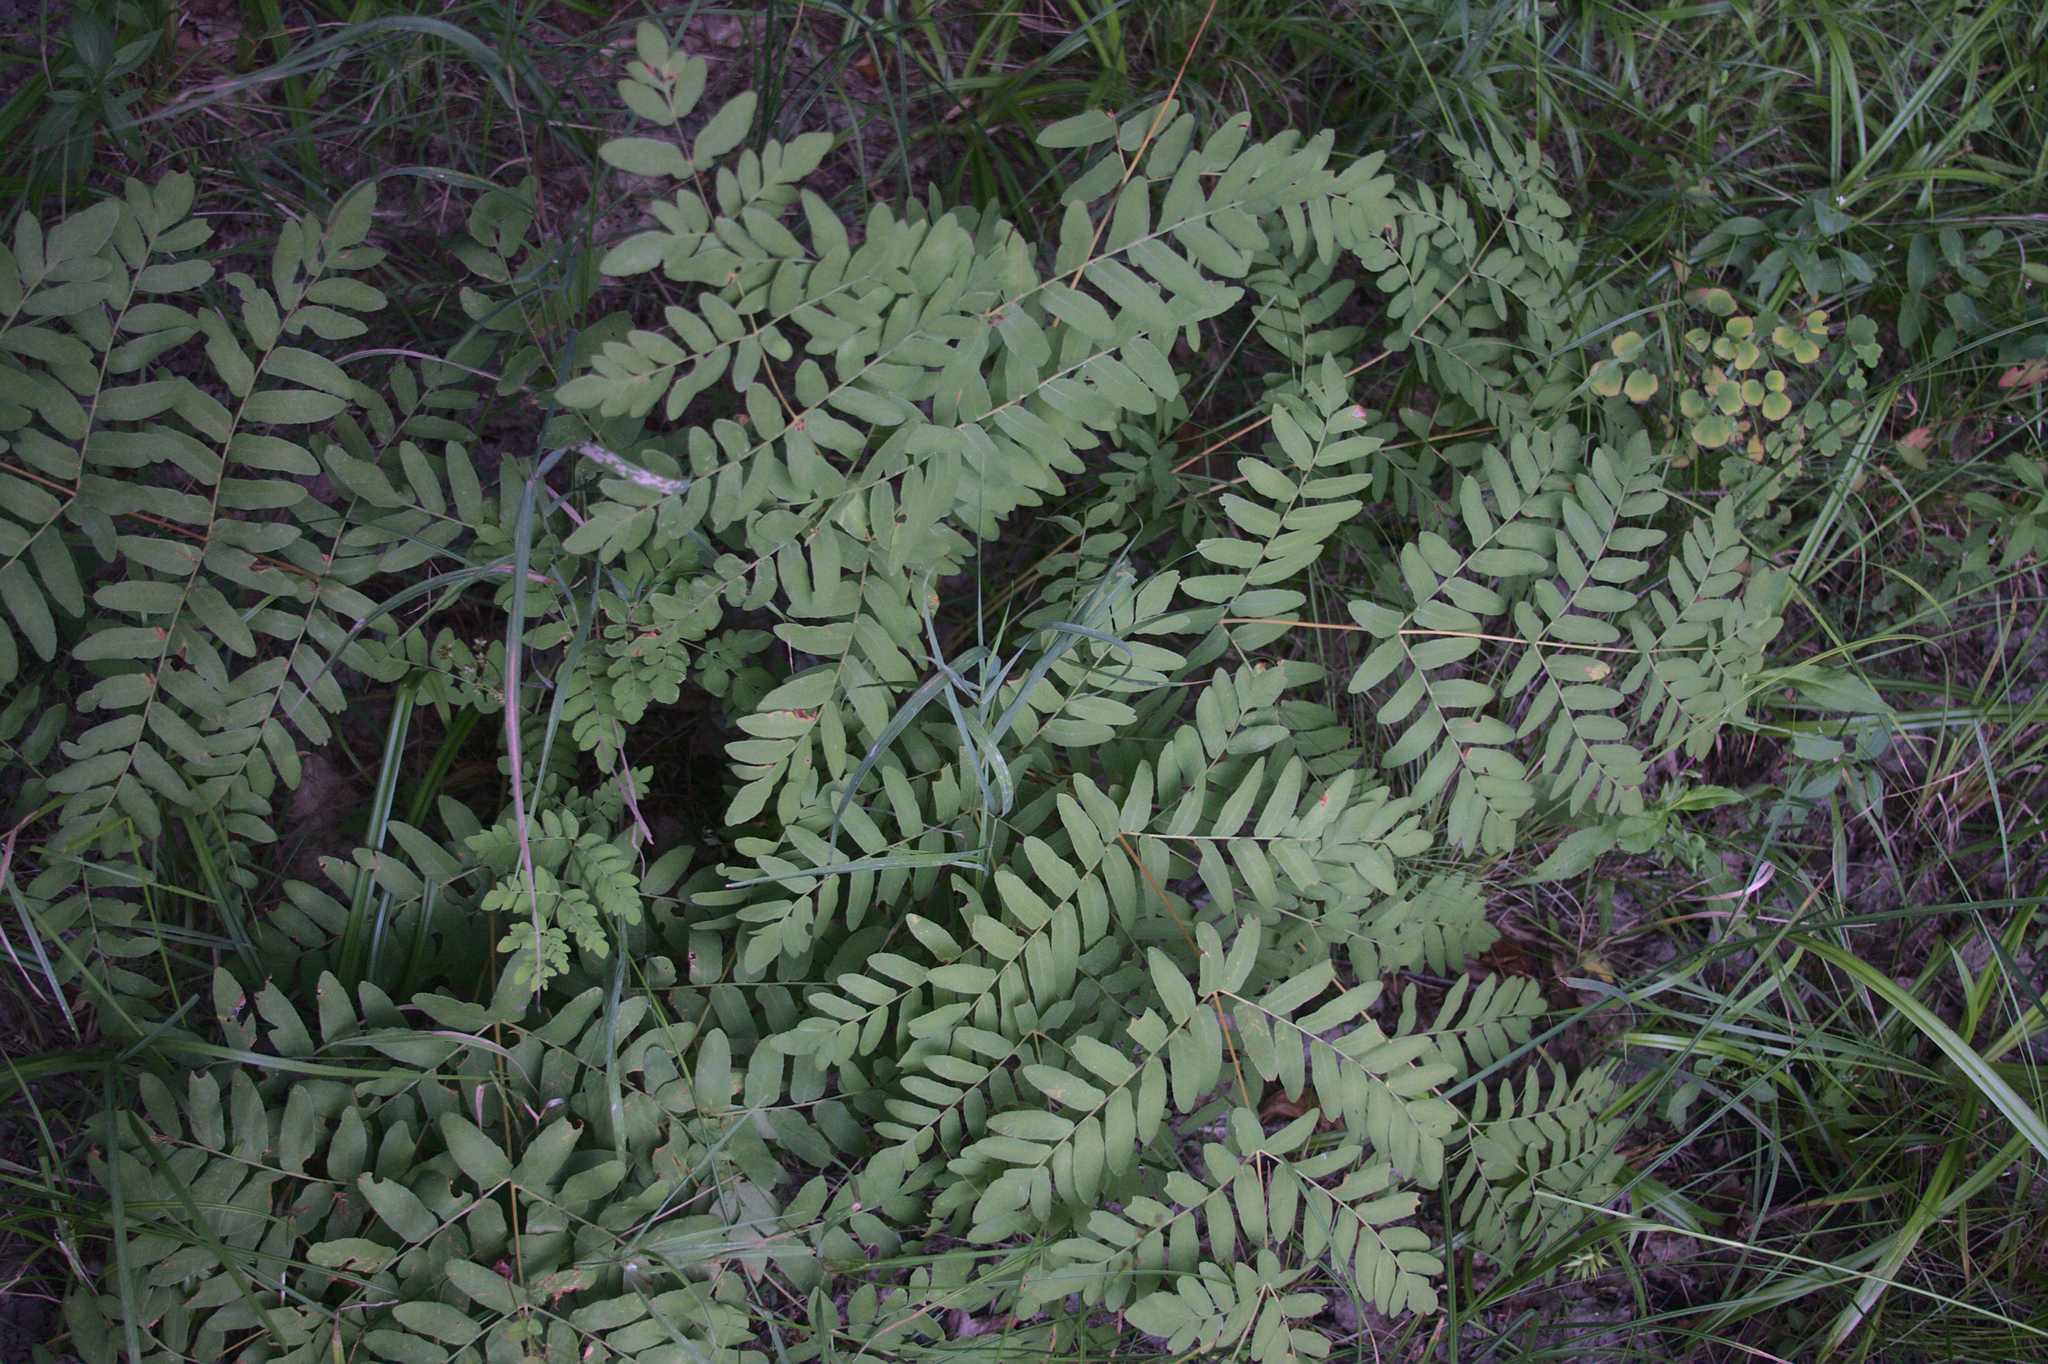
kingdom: Plantae
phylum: Tracheophyta
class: Polypodiopsida
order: Osmundales
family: Osmundaceae
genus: Osmunda
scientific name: Osmunda spectabilis
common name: American royal fern
